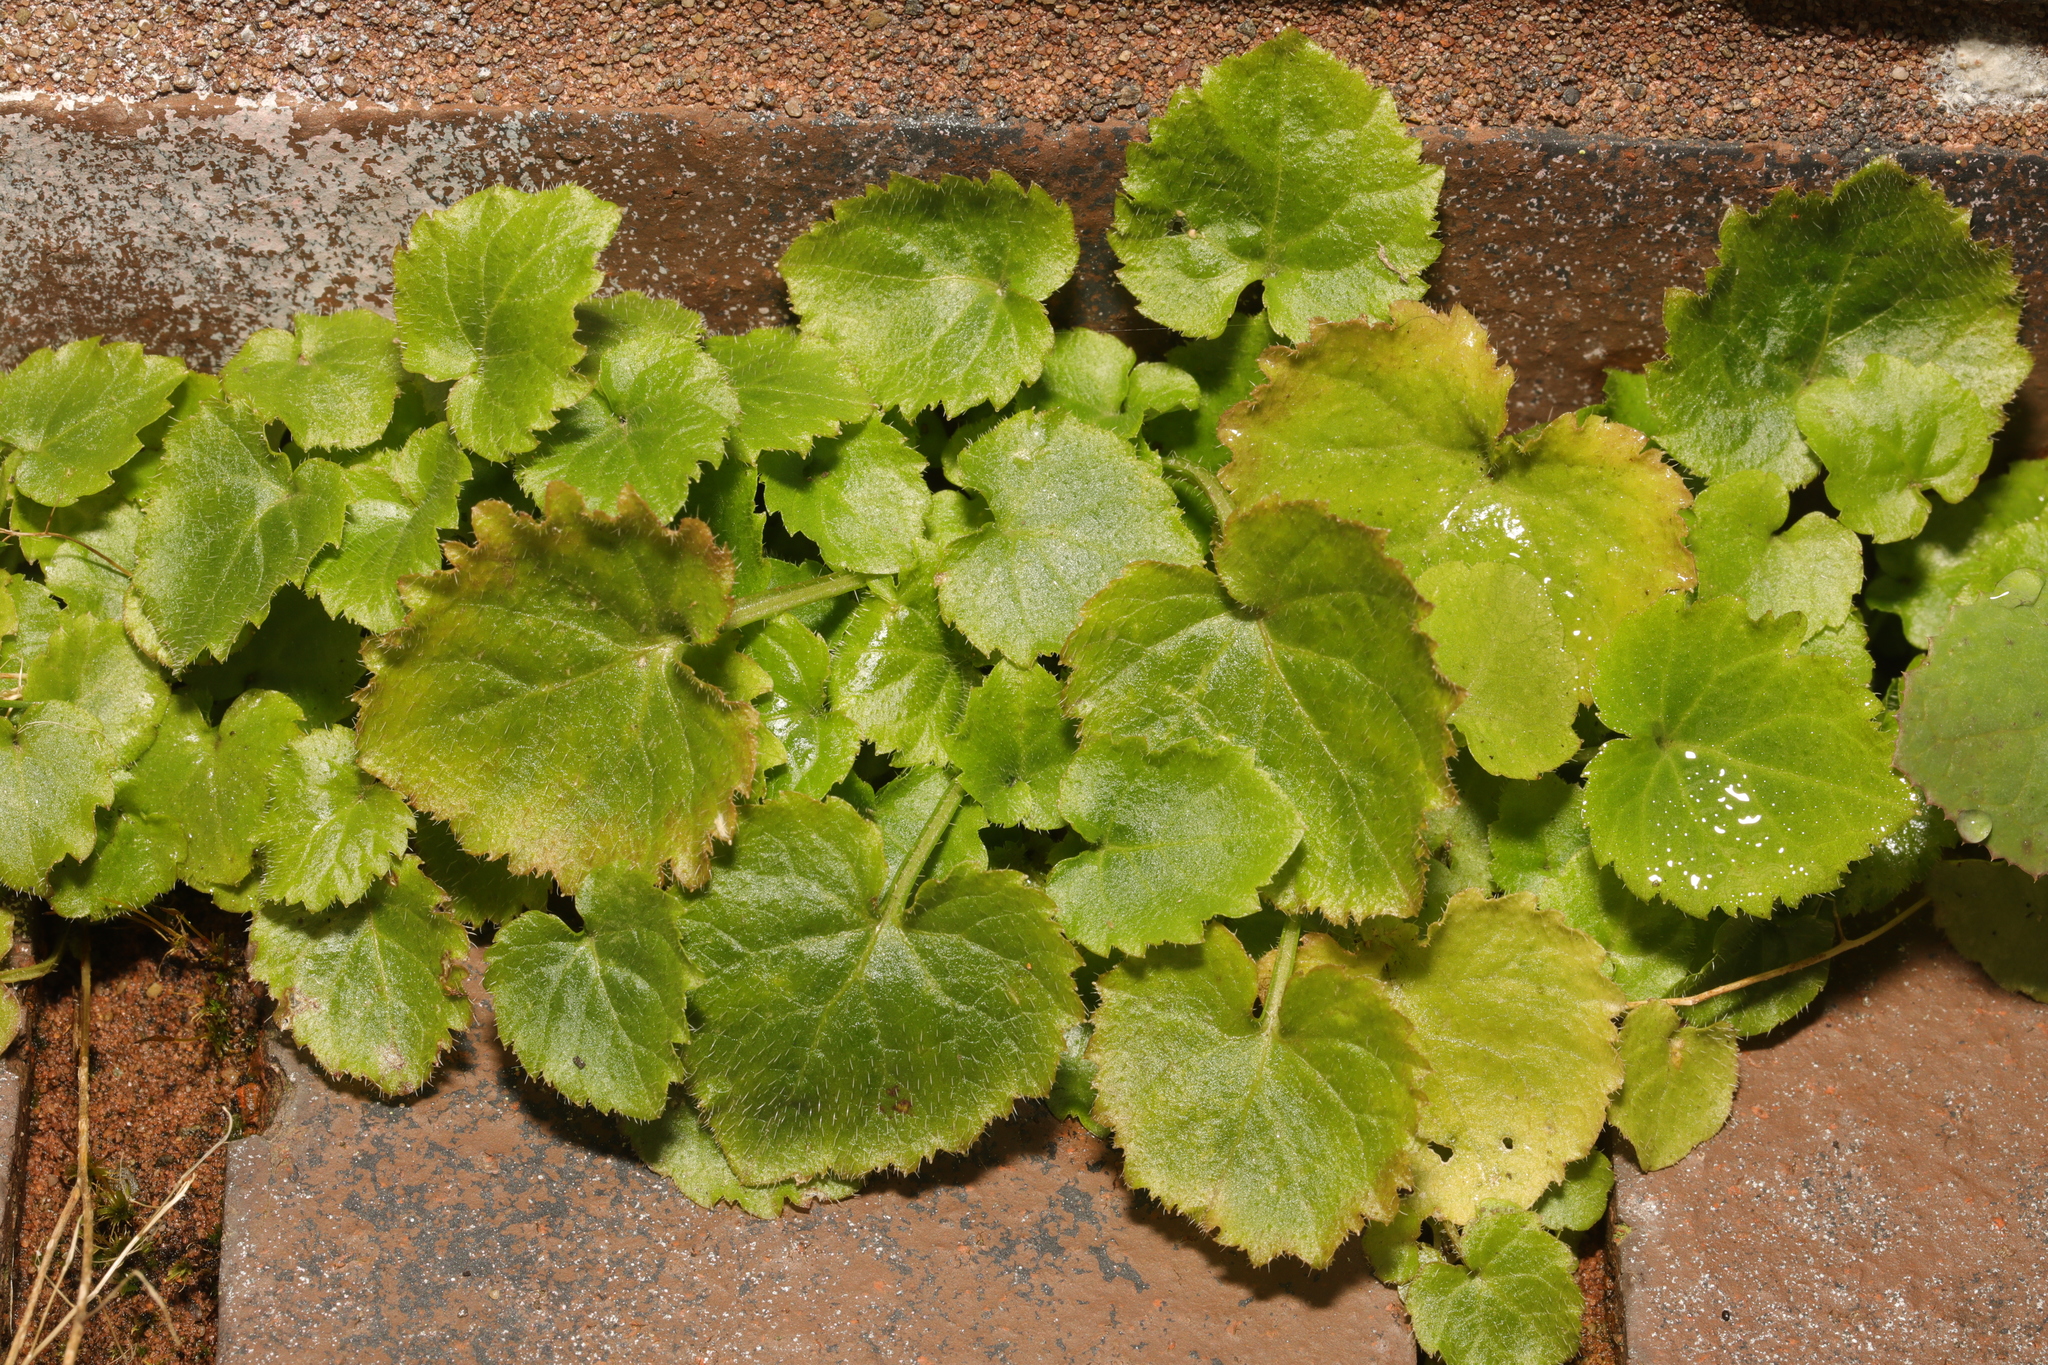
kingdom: Plantae
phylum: Tracheophyta
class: Magnoliopsida
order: Asterales
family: Campanulaceae
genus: Campanula
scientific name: Campanula poscharskyana
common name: Trailing bellflower
